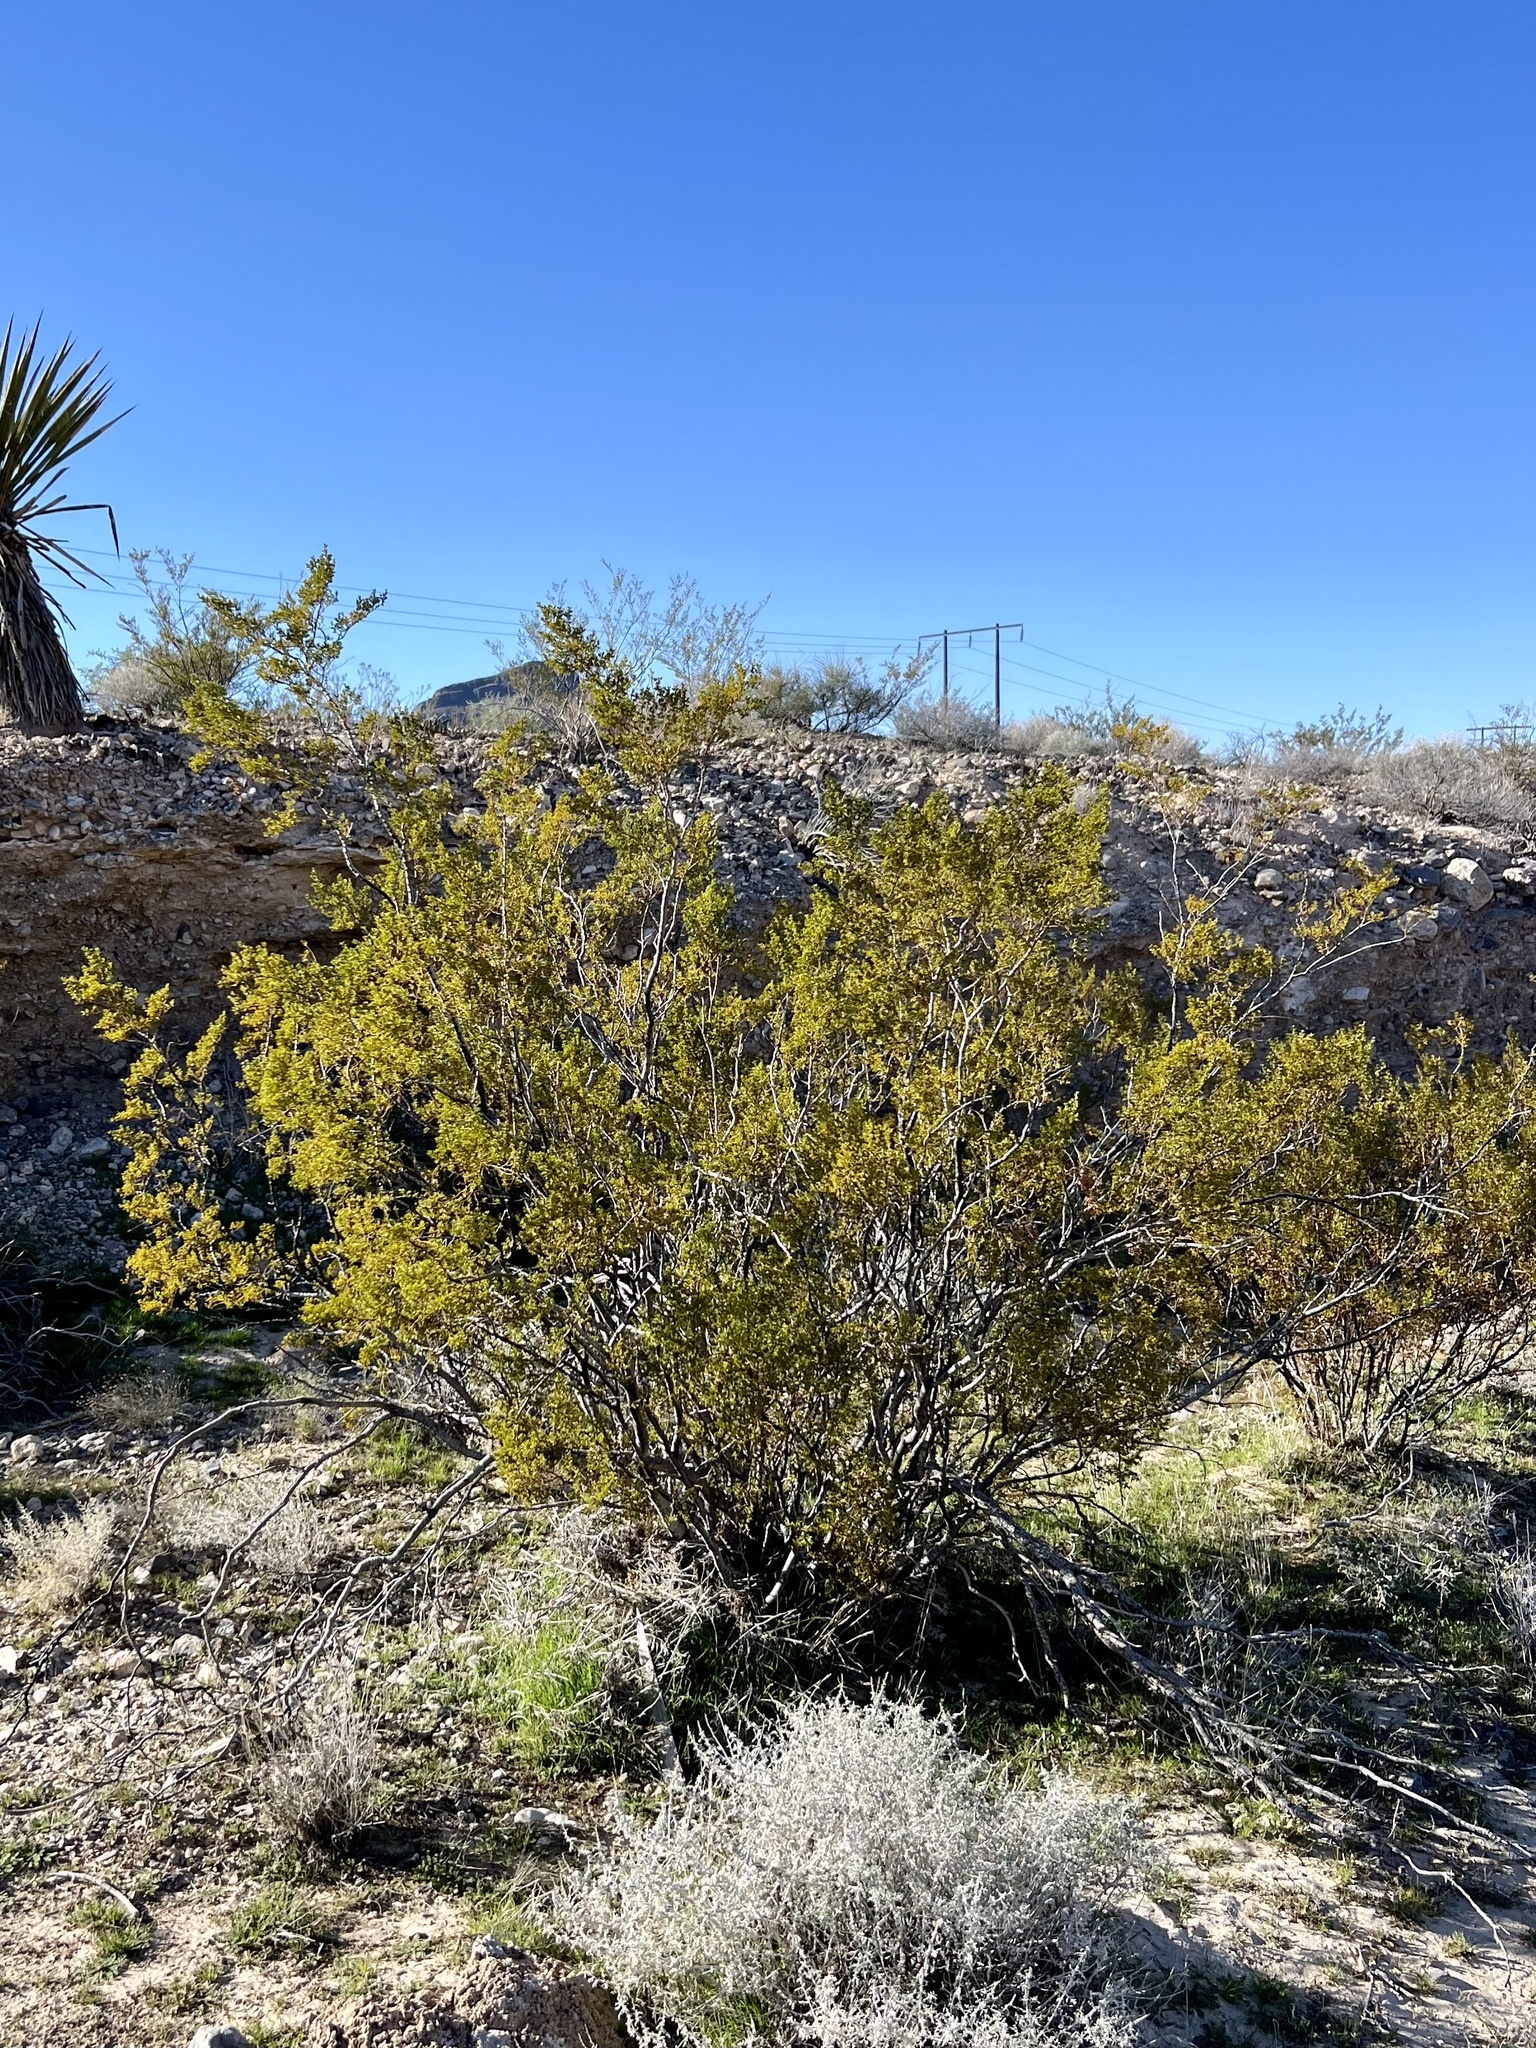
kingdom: Plantae
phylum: Tracheophyta
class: Magnoliopsida
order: Zygophyllales
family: Zygophyllaceae
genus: Larrea
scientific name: Larrea tridentata
